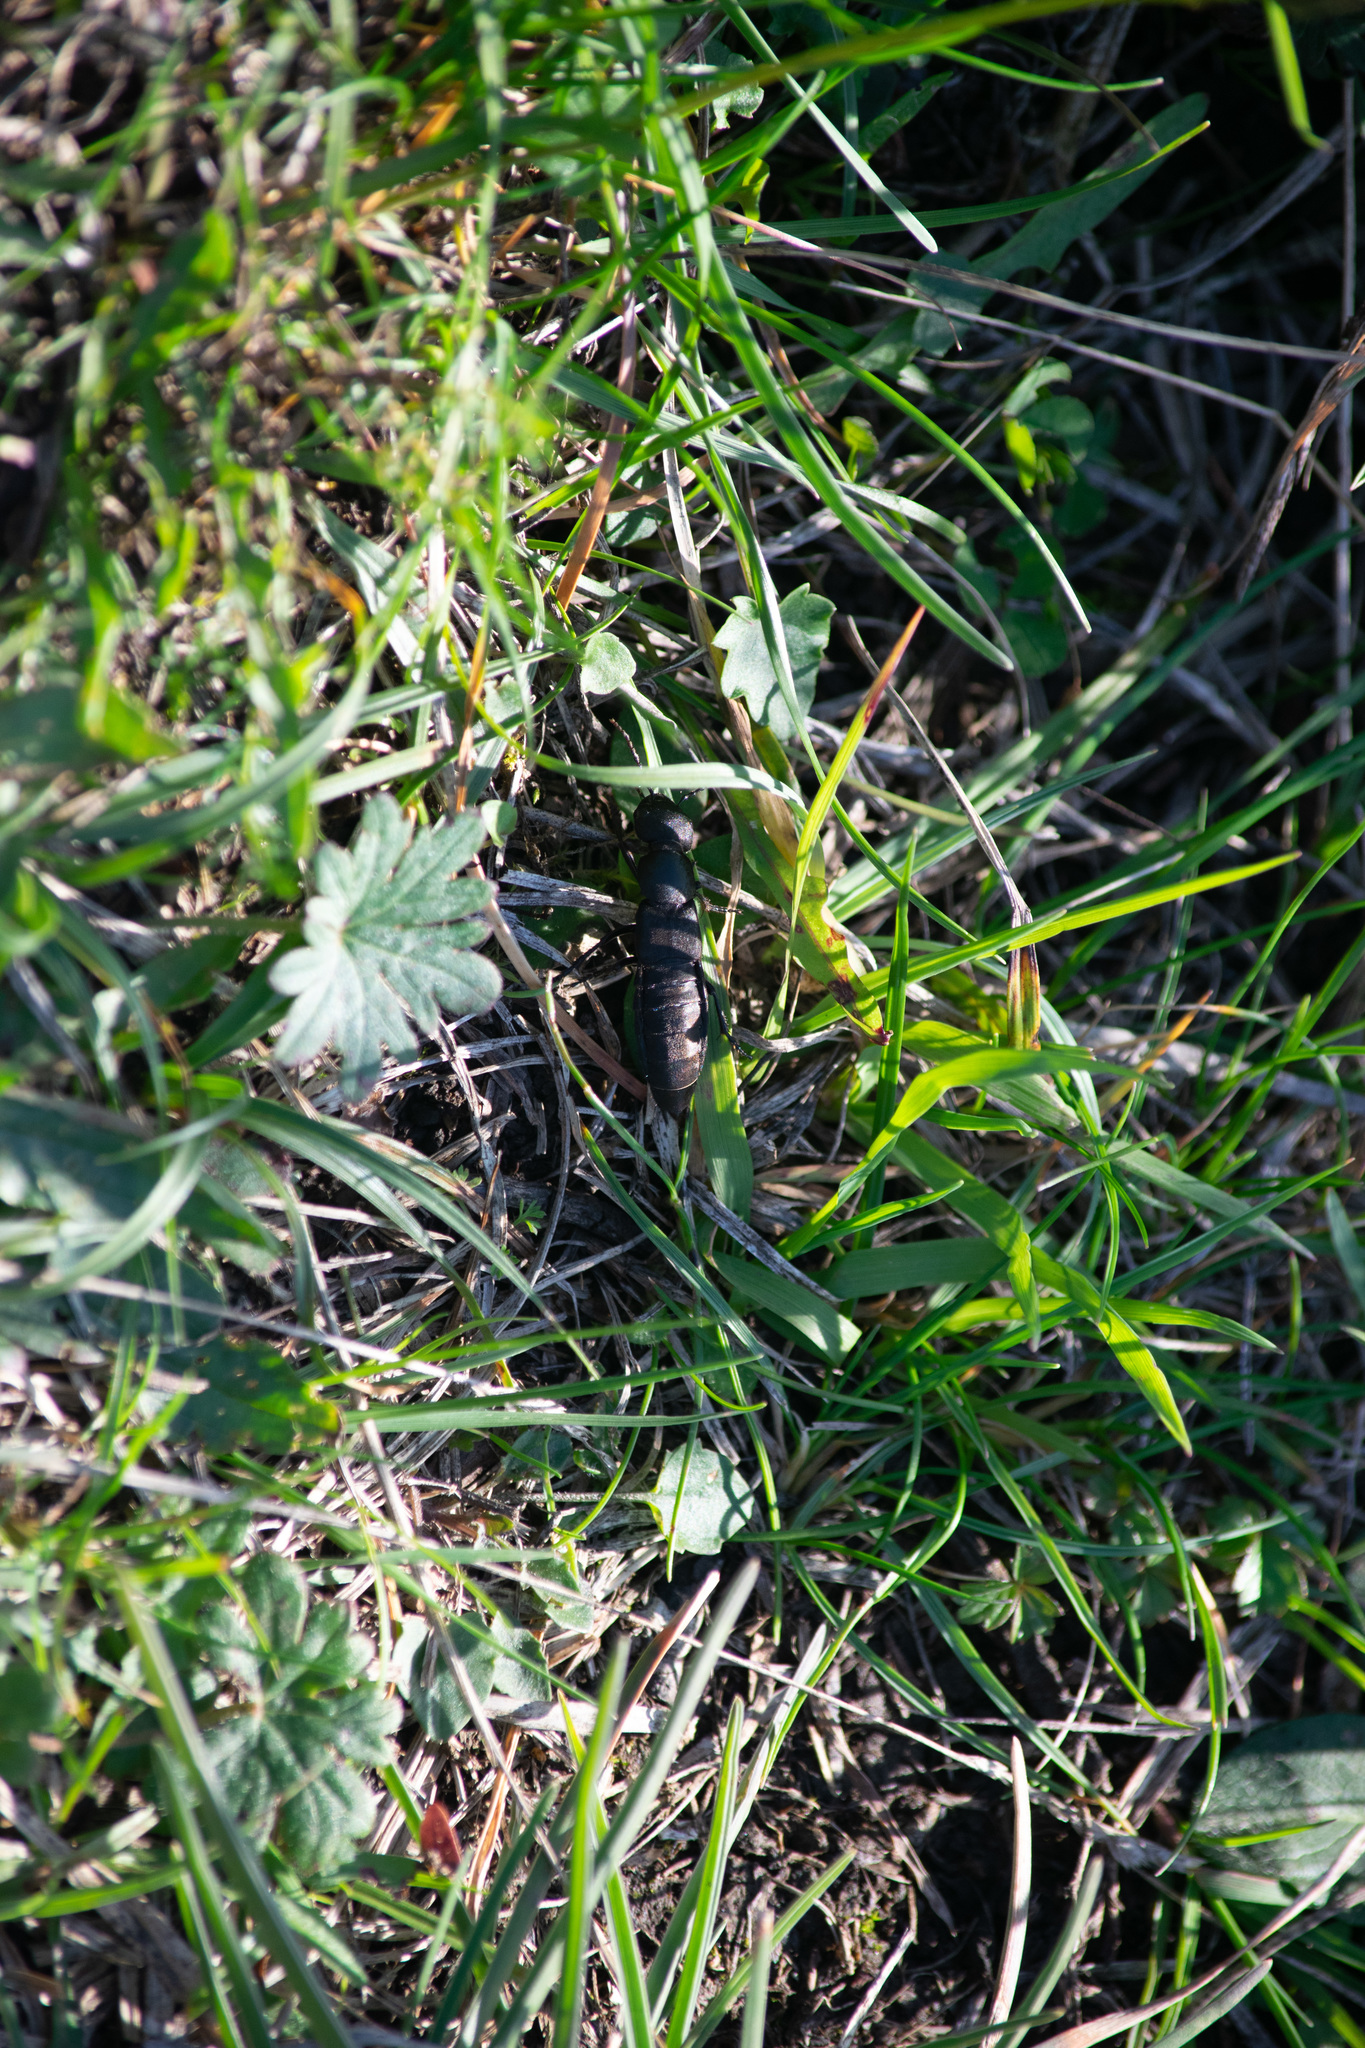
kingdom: Animalia
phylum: Arthropoda
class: Insecta
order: Coleoptera
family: Staphylinidae
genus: Ocypus
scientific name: Ocypus olens
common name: Devil's coach-horse
